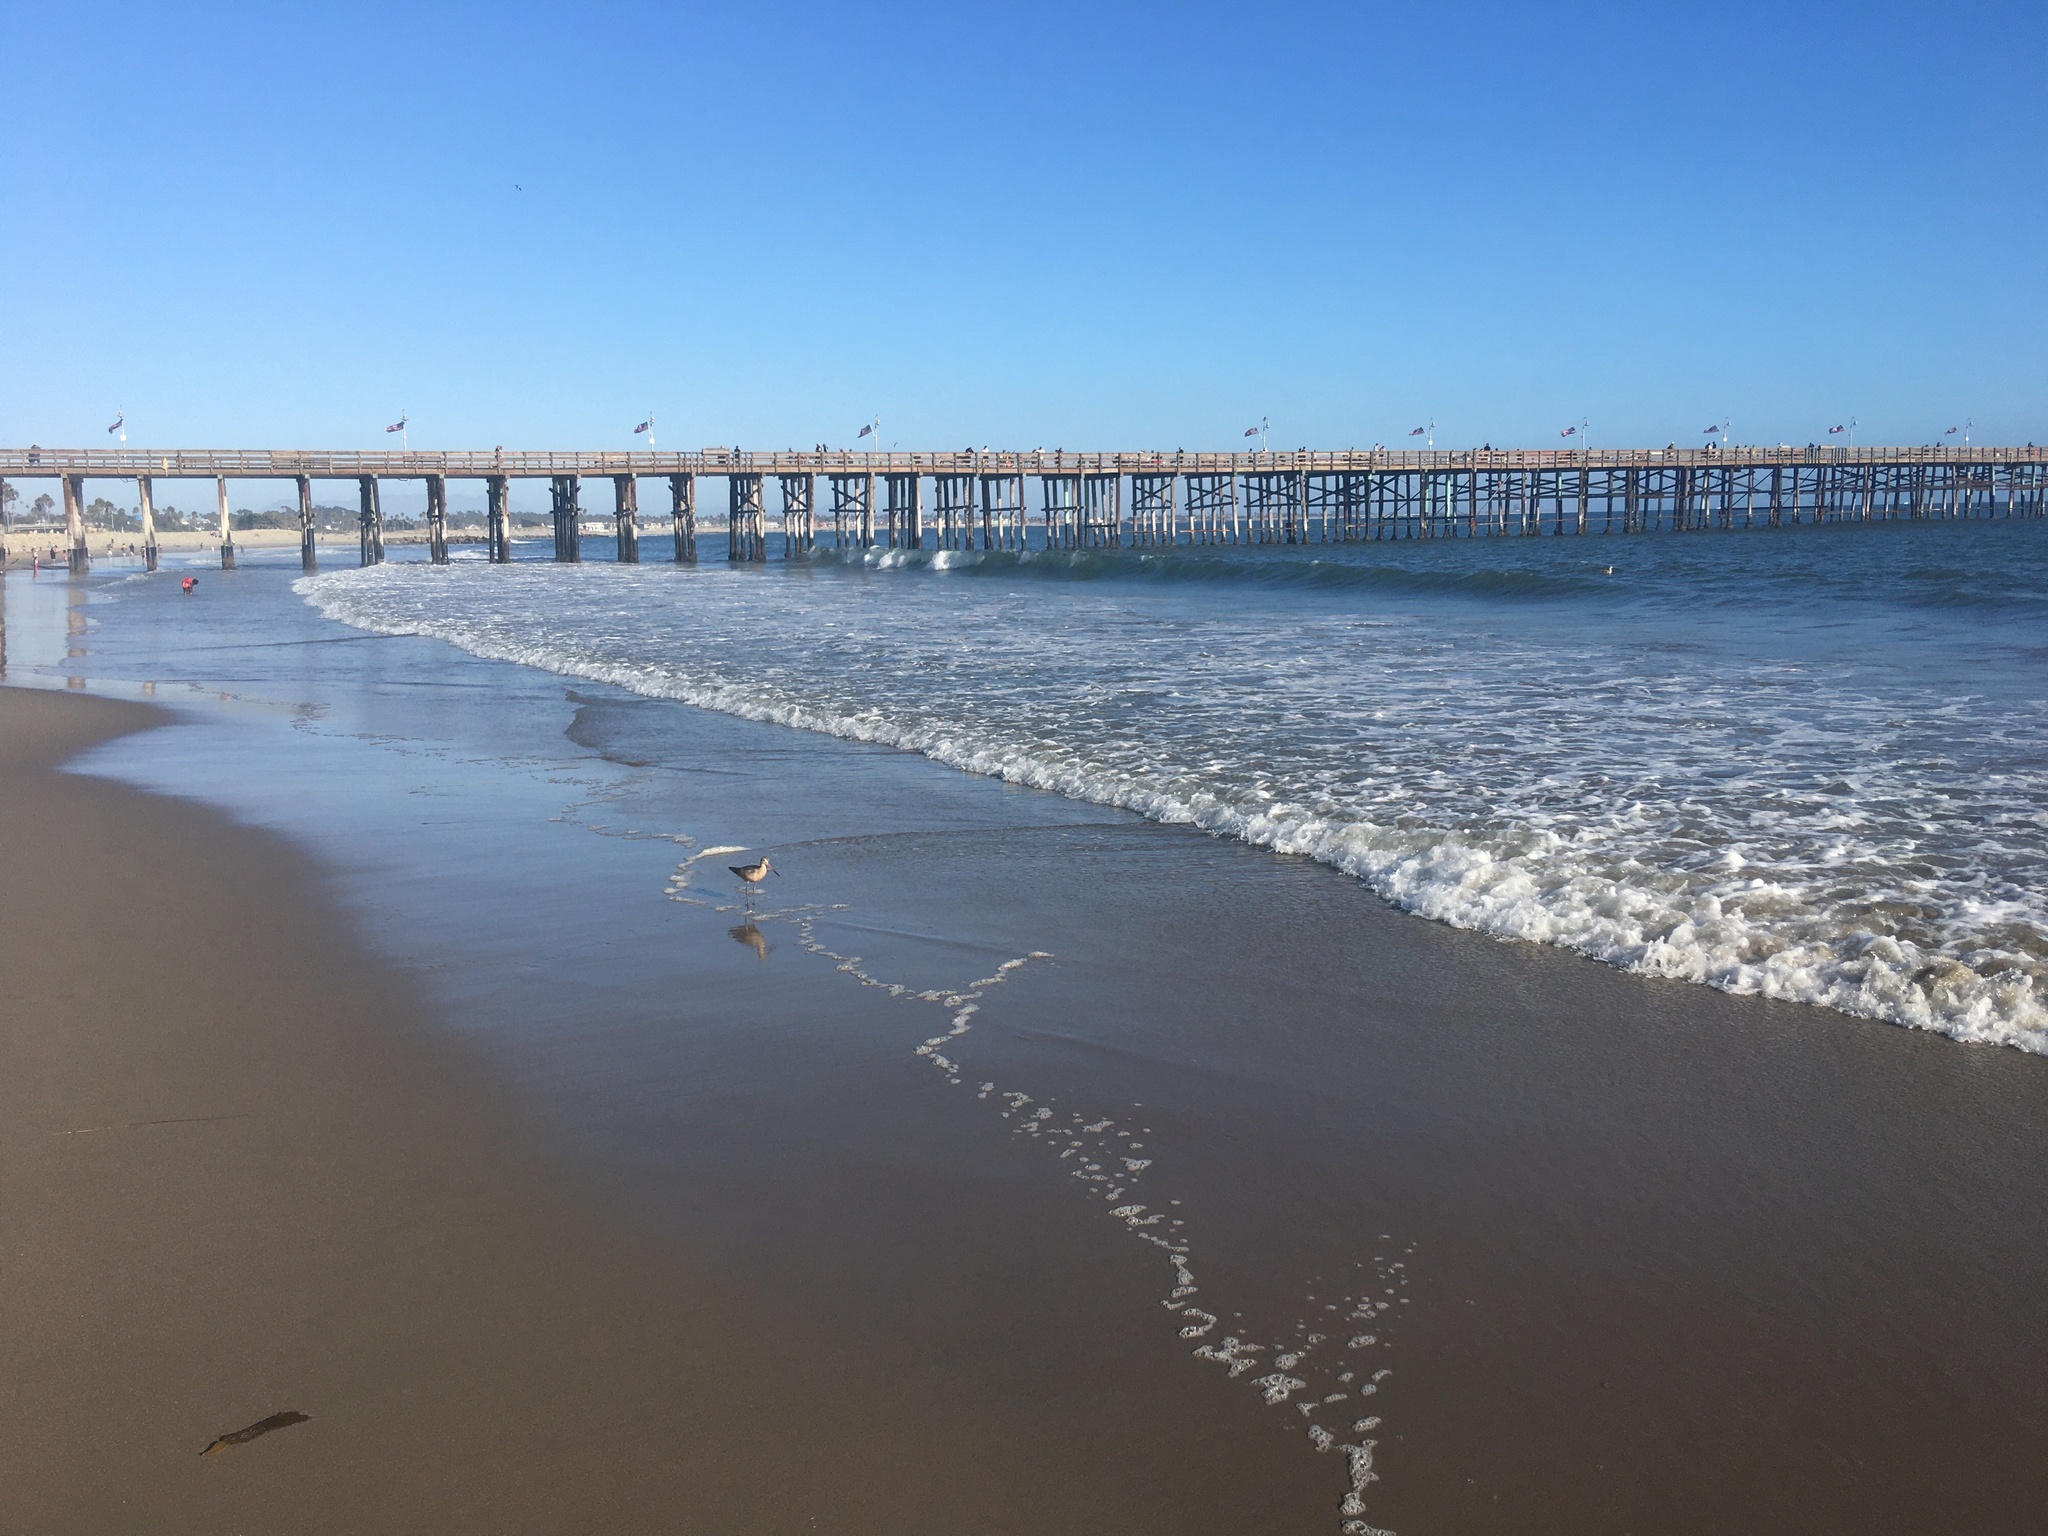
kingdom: Animalia
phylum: Chordata
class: Aves
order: Charadriiformes
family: Scolopacidae
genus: Limosa
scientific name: Limosa fedoa
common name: Marbled godwit
